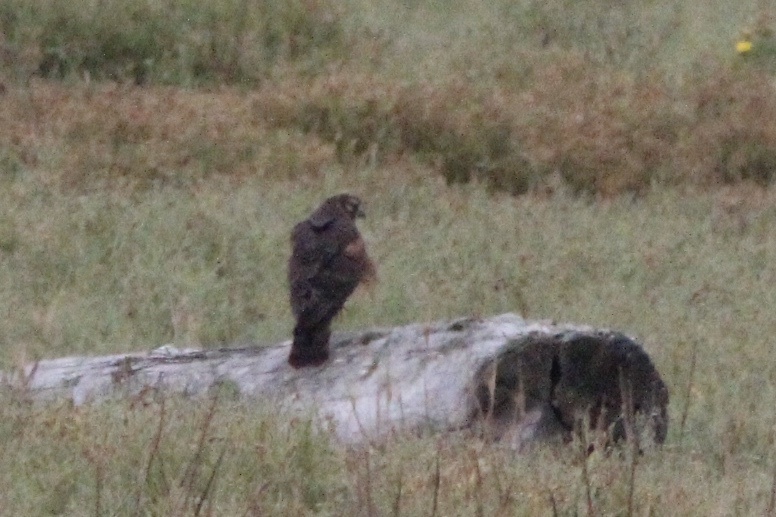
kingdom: Animalia
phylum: Chordata
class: Aves
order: Accipitriformes
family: Accipitridae
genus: Circus
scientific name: Circus cyaneus
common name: Hen harrier
